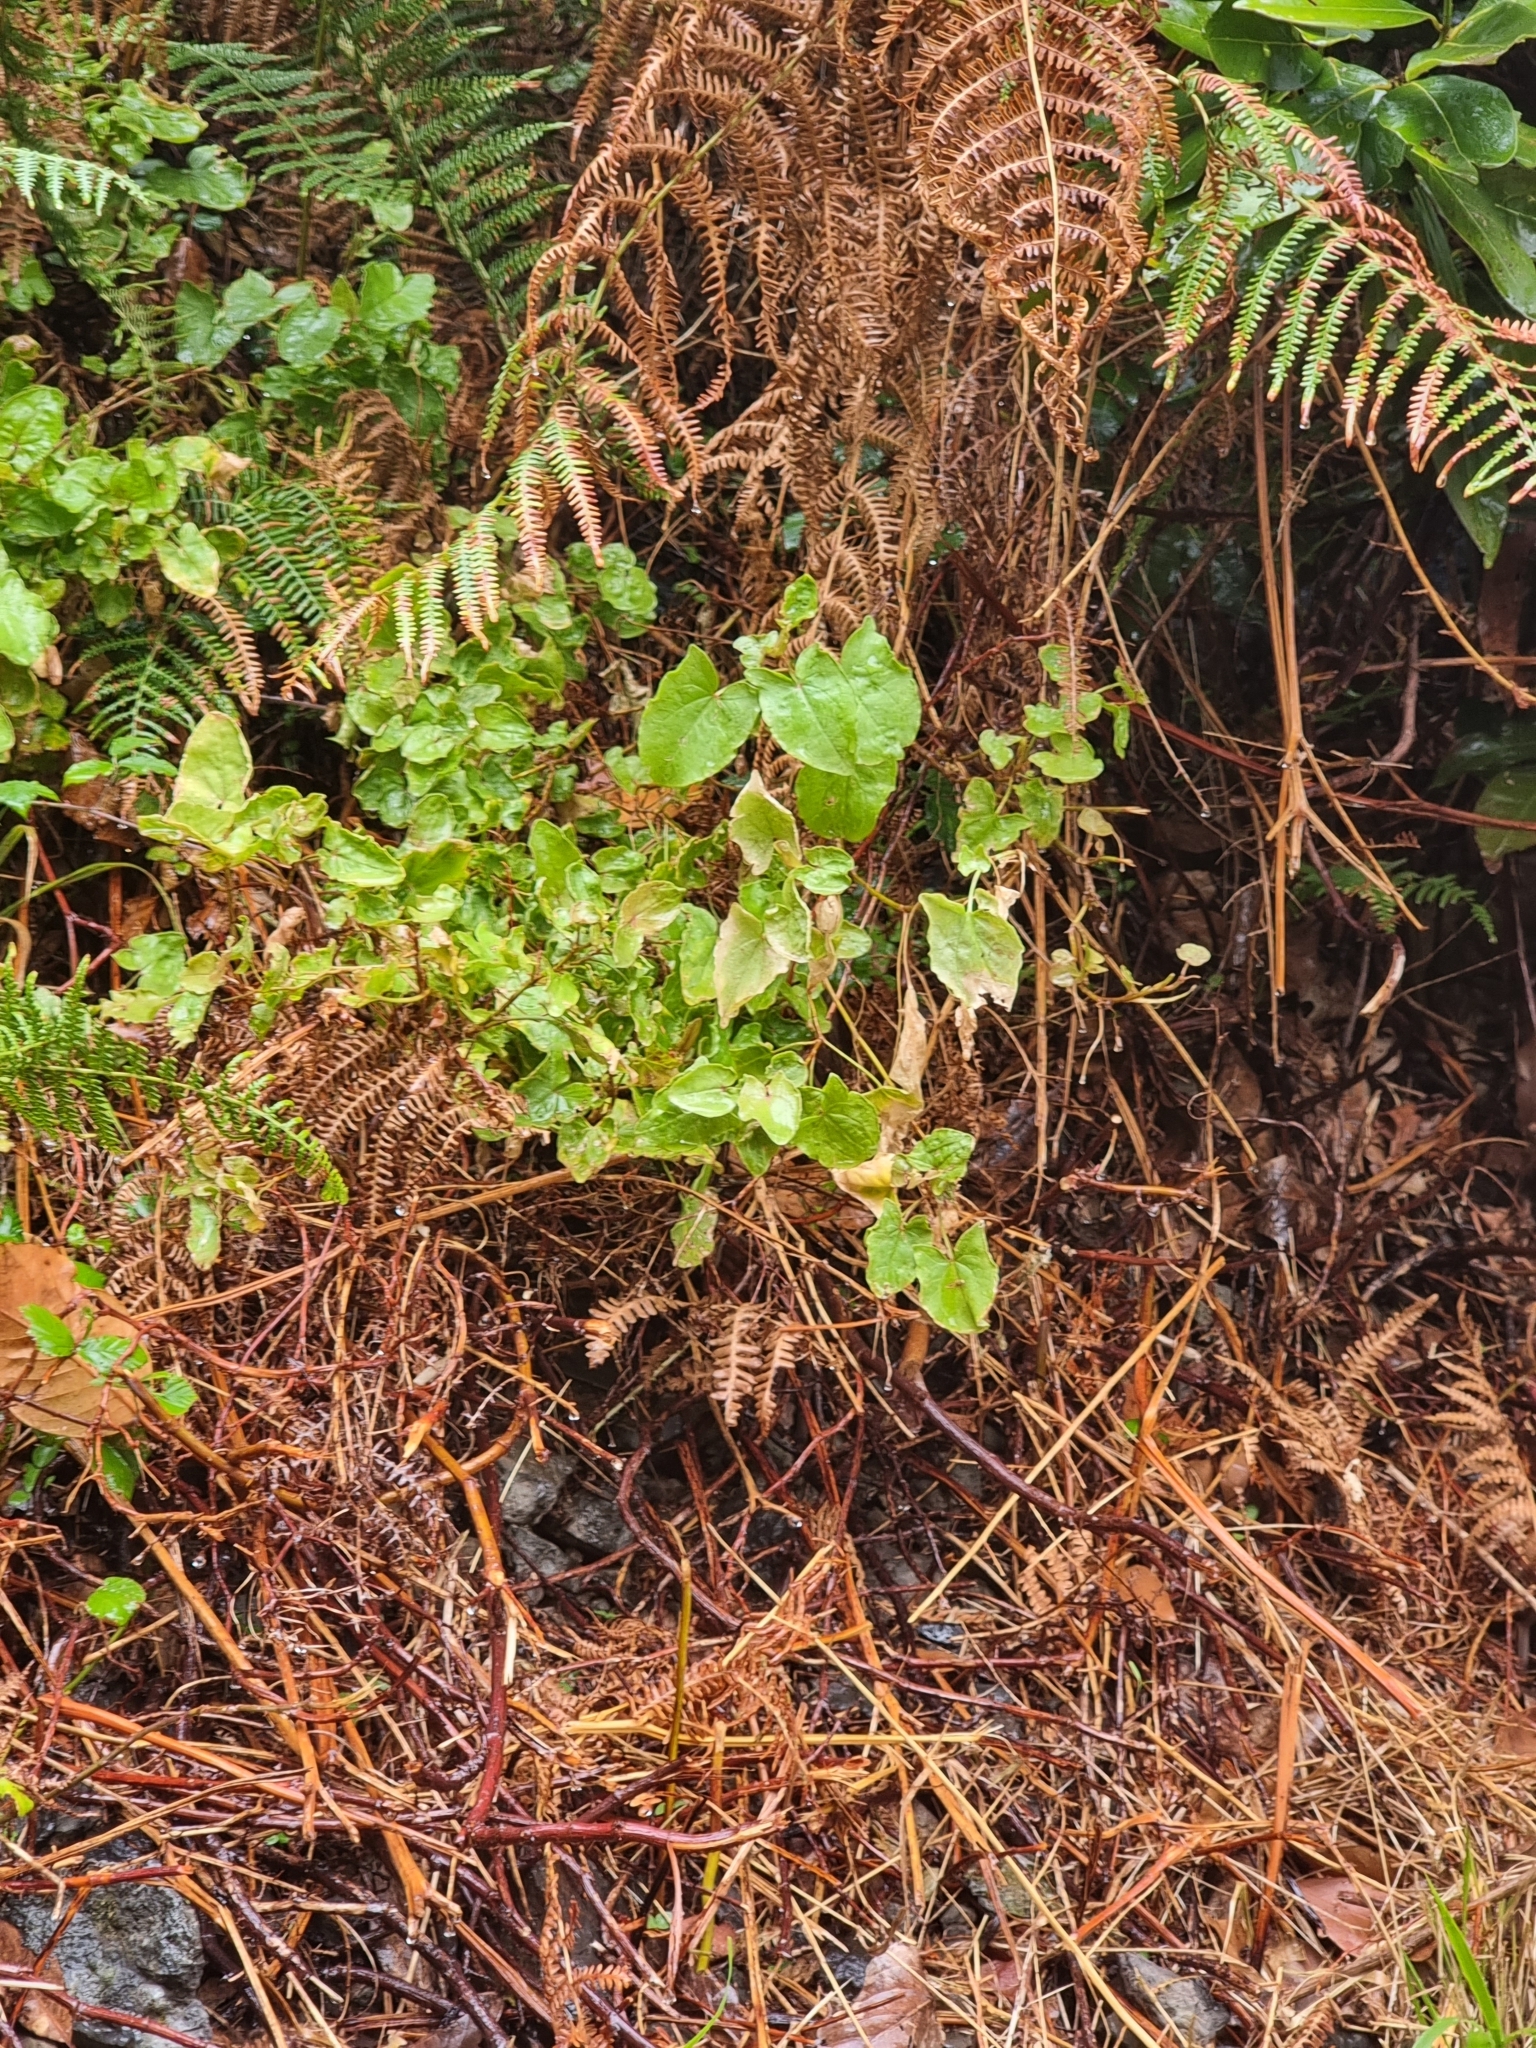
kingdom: Plantae
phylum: Tracheophyta
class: Magnoliopsida
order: Caryophyllales
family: Polygonaceae
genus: Rumex
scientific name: Rumex maderensis
